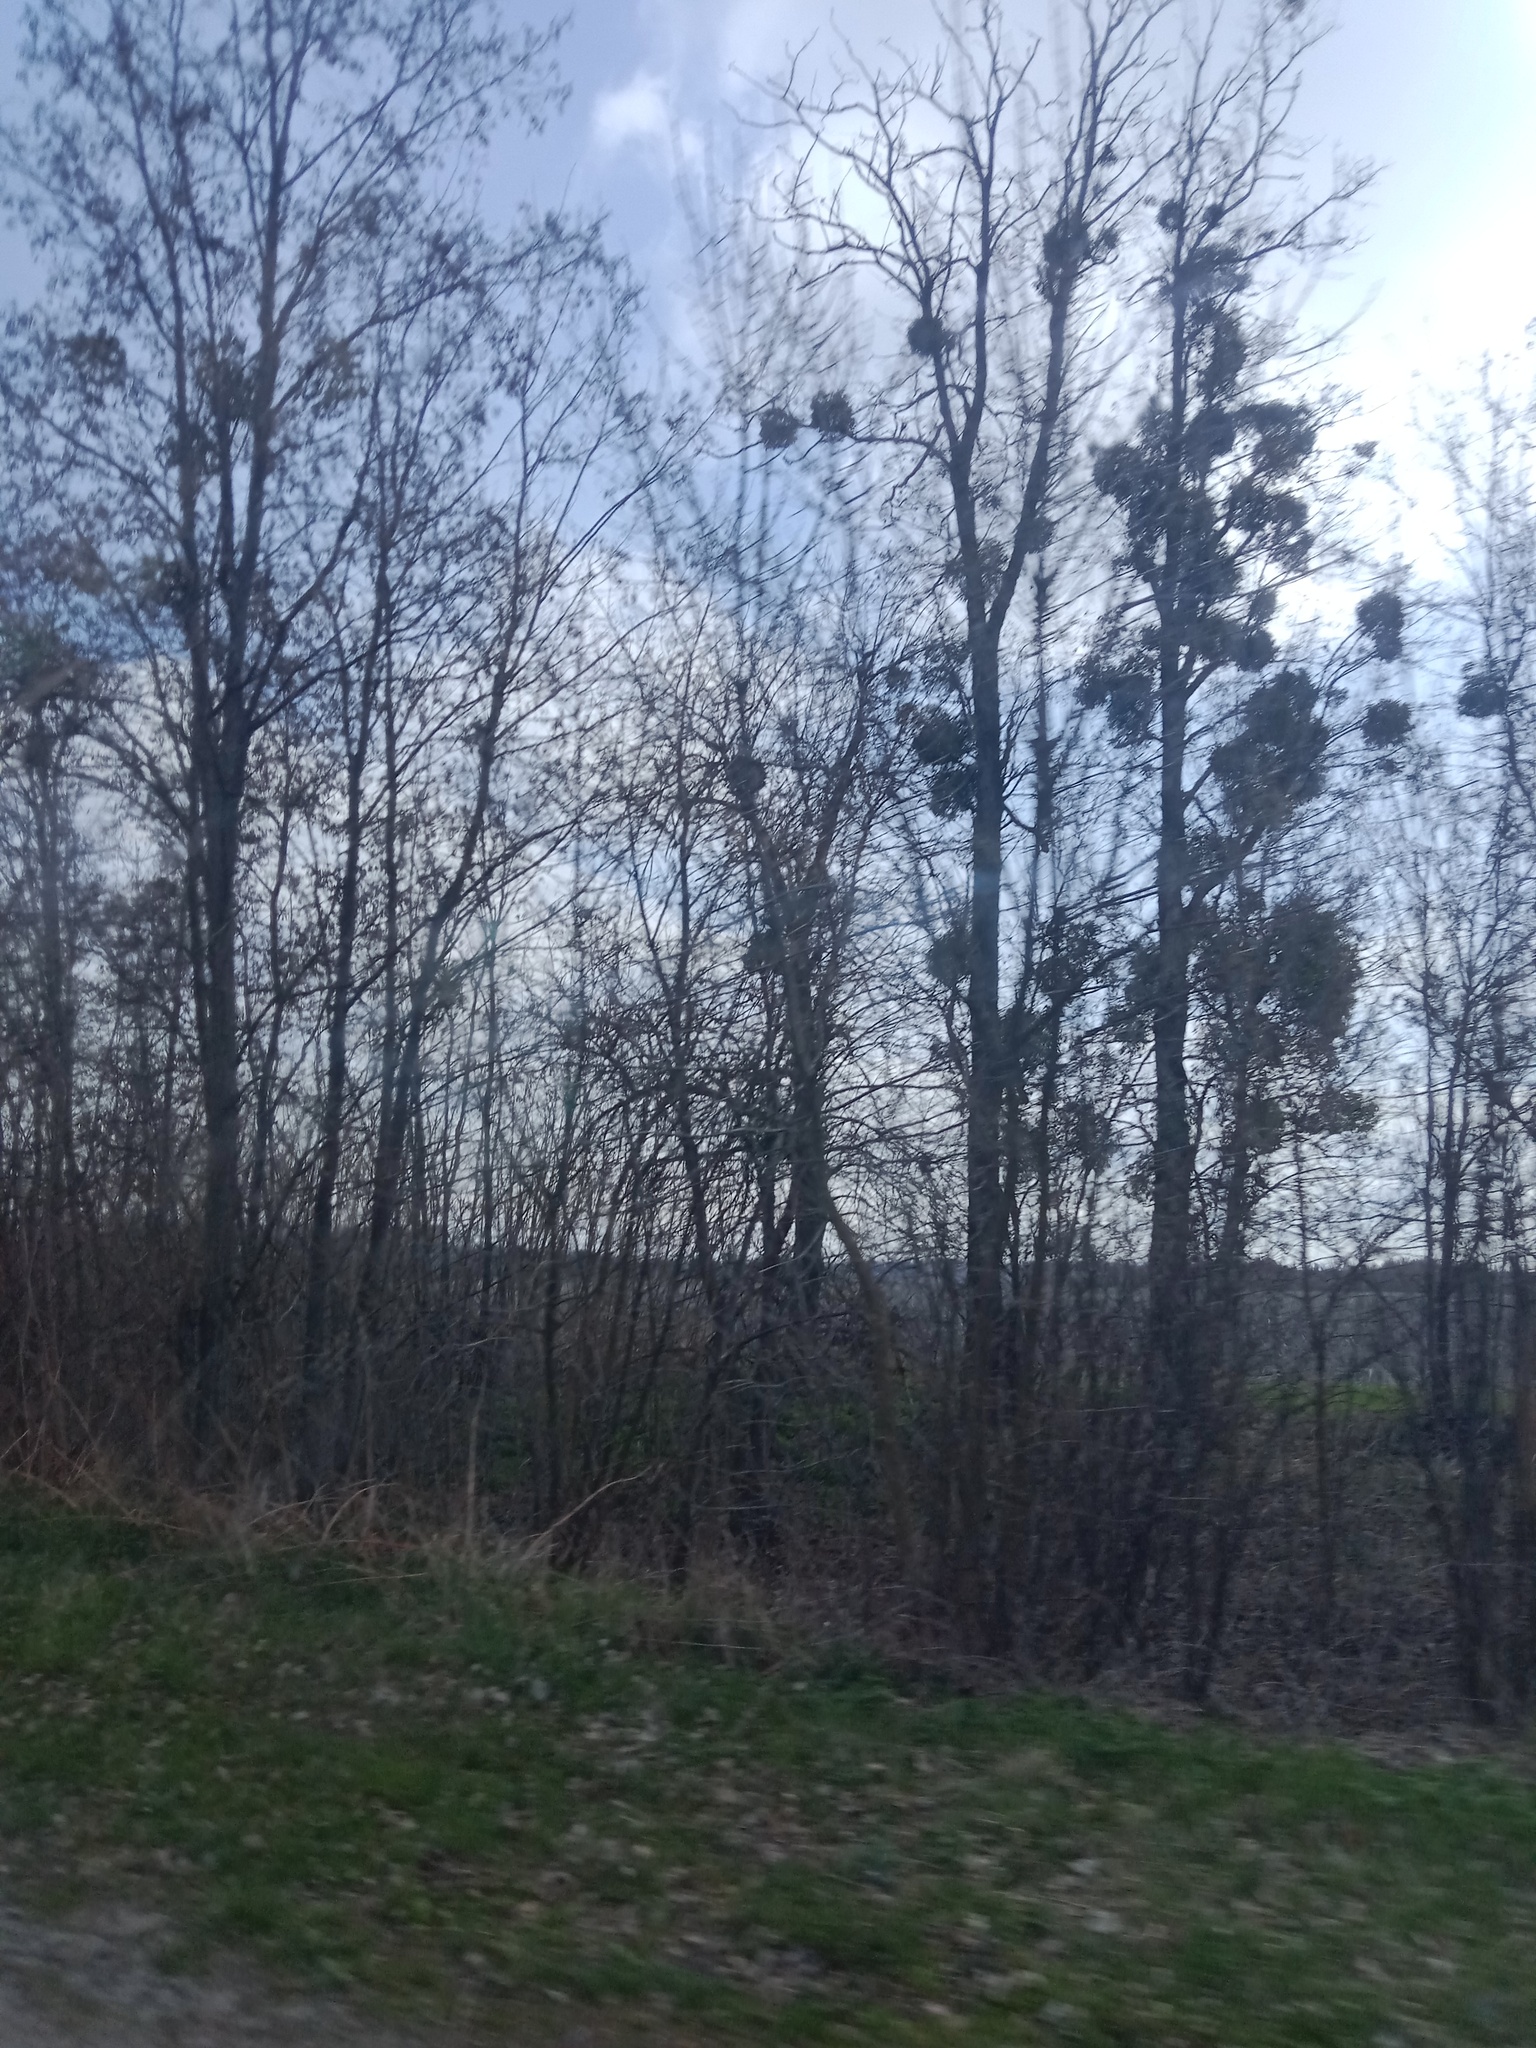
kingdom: Plantae
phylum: Tracheophyta
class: Magnoliopsida
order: Santalales
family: Viscaceae
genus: Viscum
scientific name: Viscum album
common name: Mistletoe
